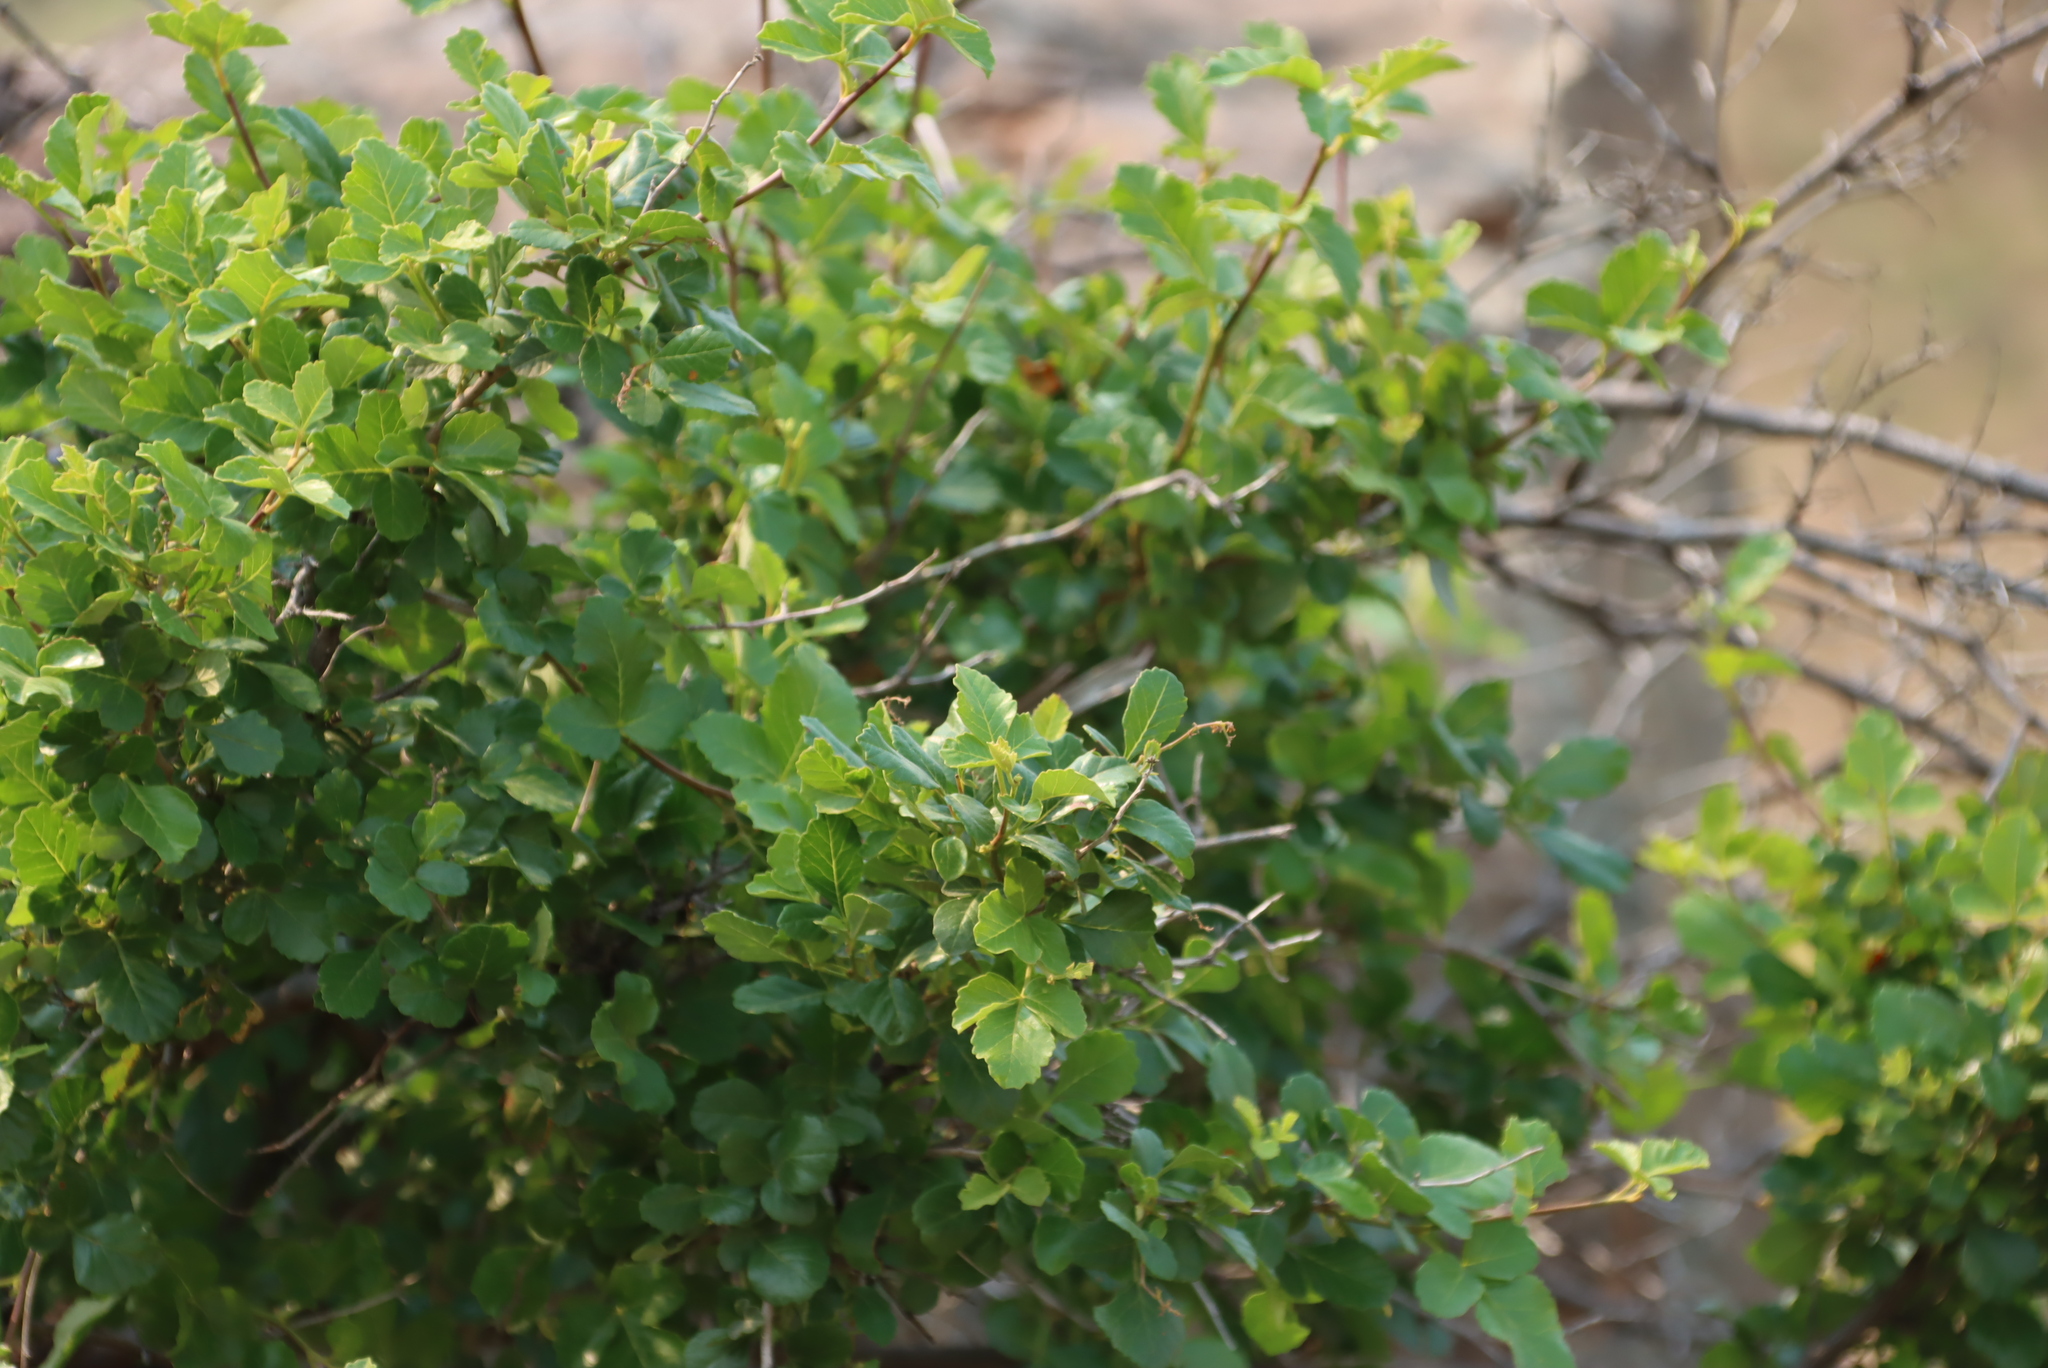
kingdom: Plantae
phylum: Tracheophyta
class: Magnoliopsida
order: Sapindales
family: Anacardiaceae
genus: Searsia
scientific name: Searsia populifolia
